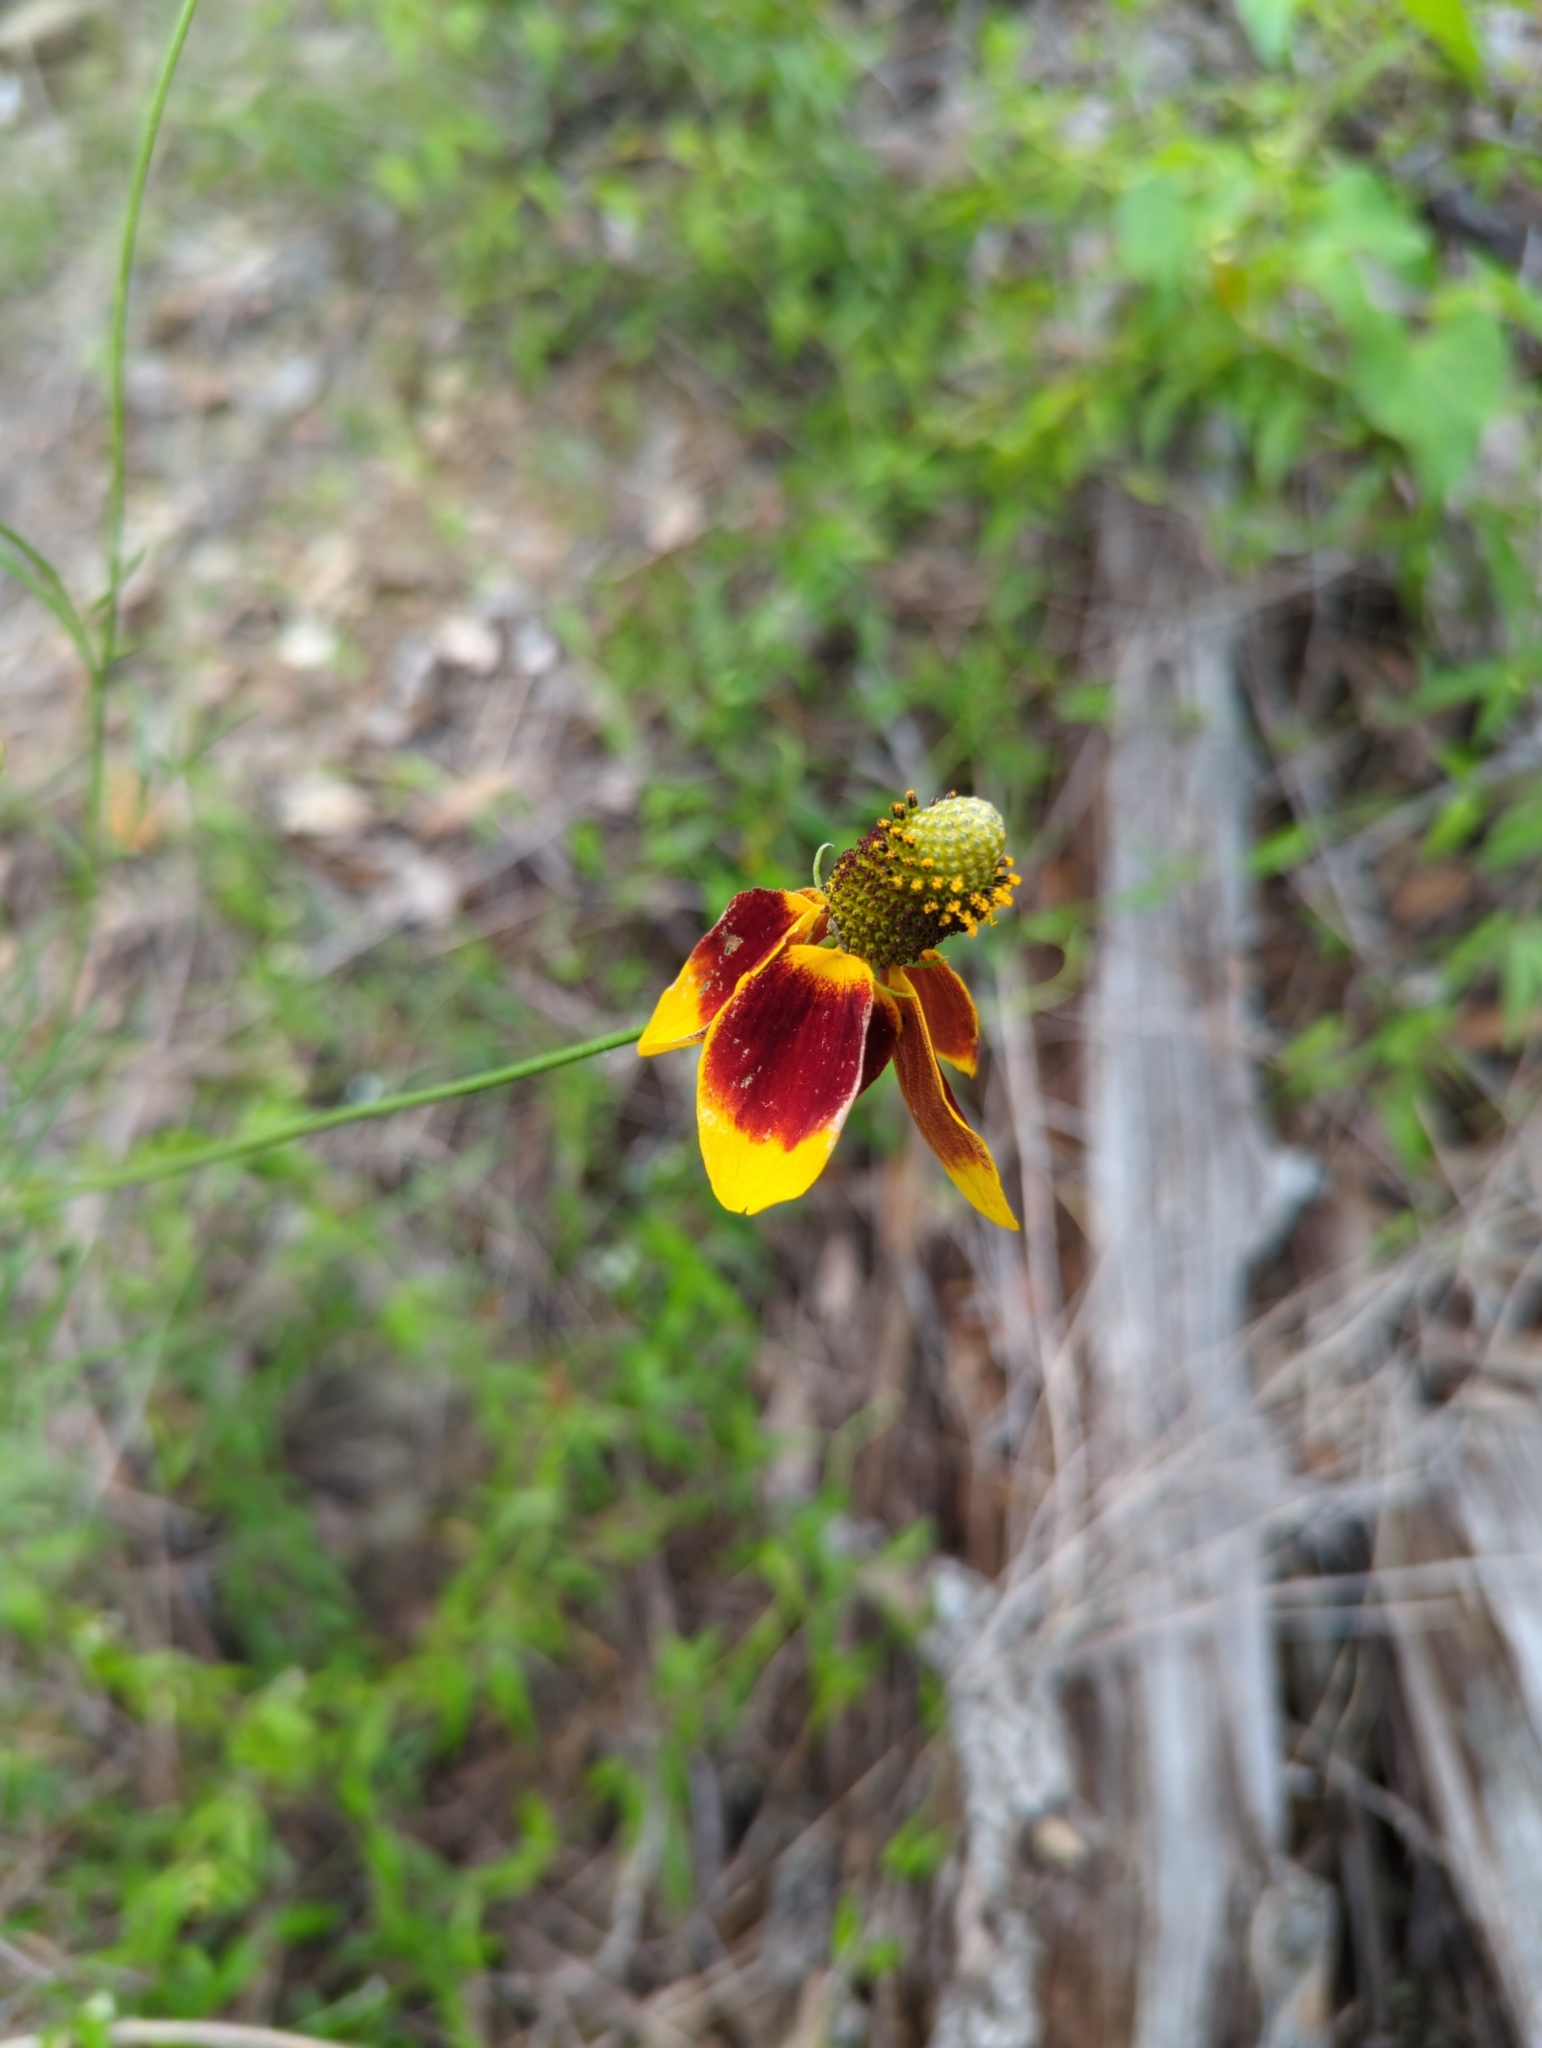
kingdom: Plantae
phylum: Tracheophyta
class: Magnoliopsida
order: Asterales
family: Asteraceae
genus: Ratibida
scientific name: Ratibida columnifera
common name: Prairie coneflower
